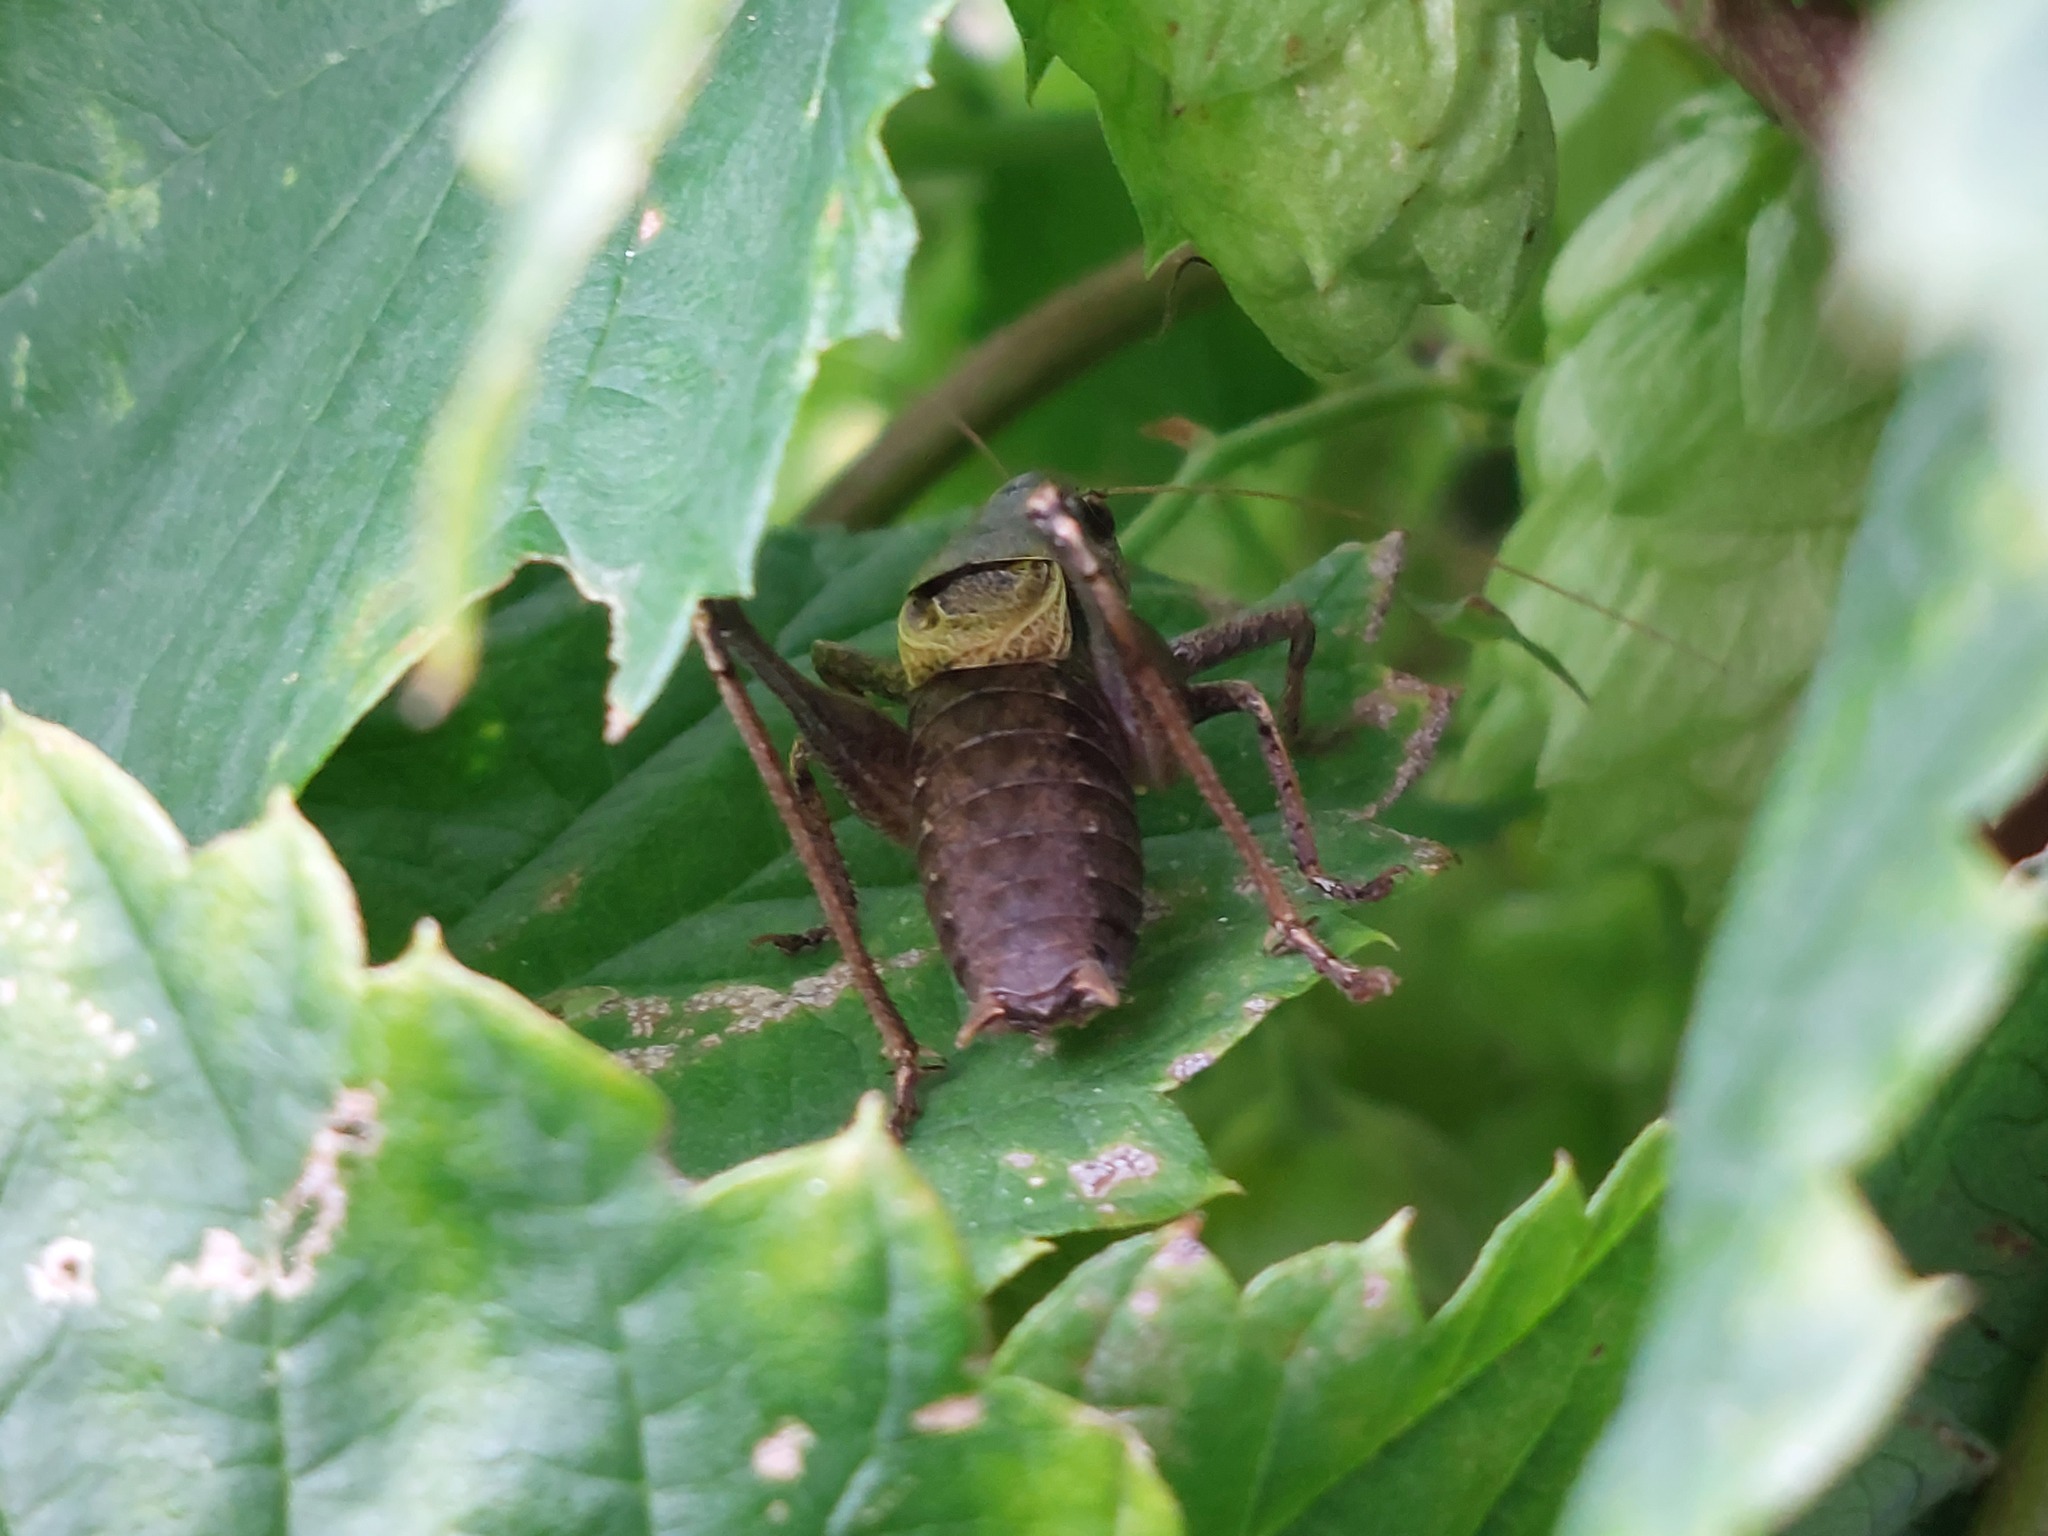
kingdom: Animalia
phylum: Arthropoda
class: Insecta
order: Orthoptera
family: Tettigoniidae
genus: Pholidoptera
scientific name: Pholidoptera griseoaptera
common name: Dark bush-cricket
